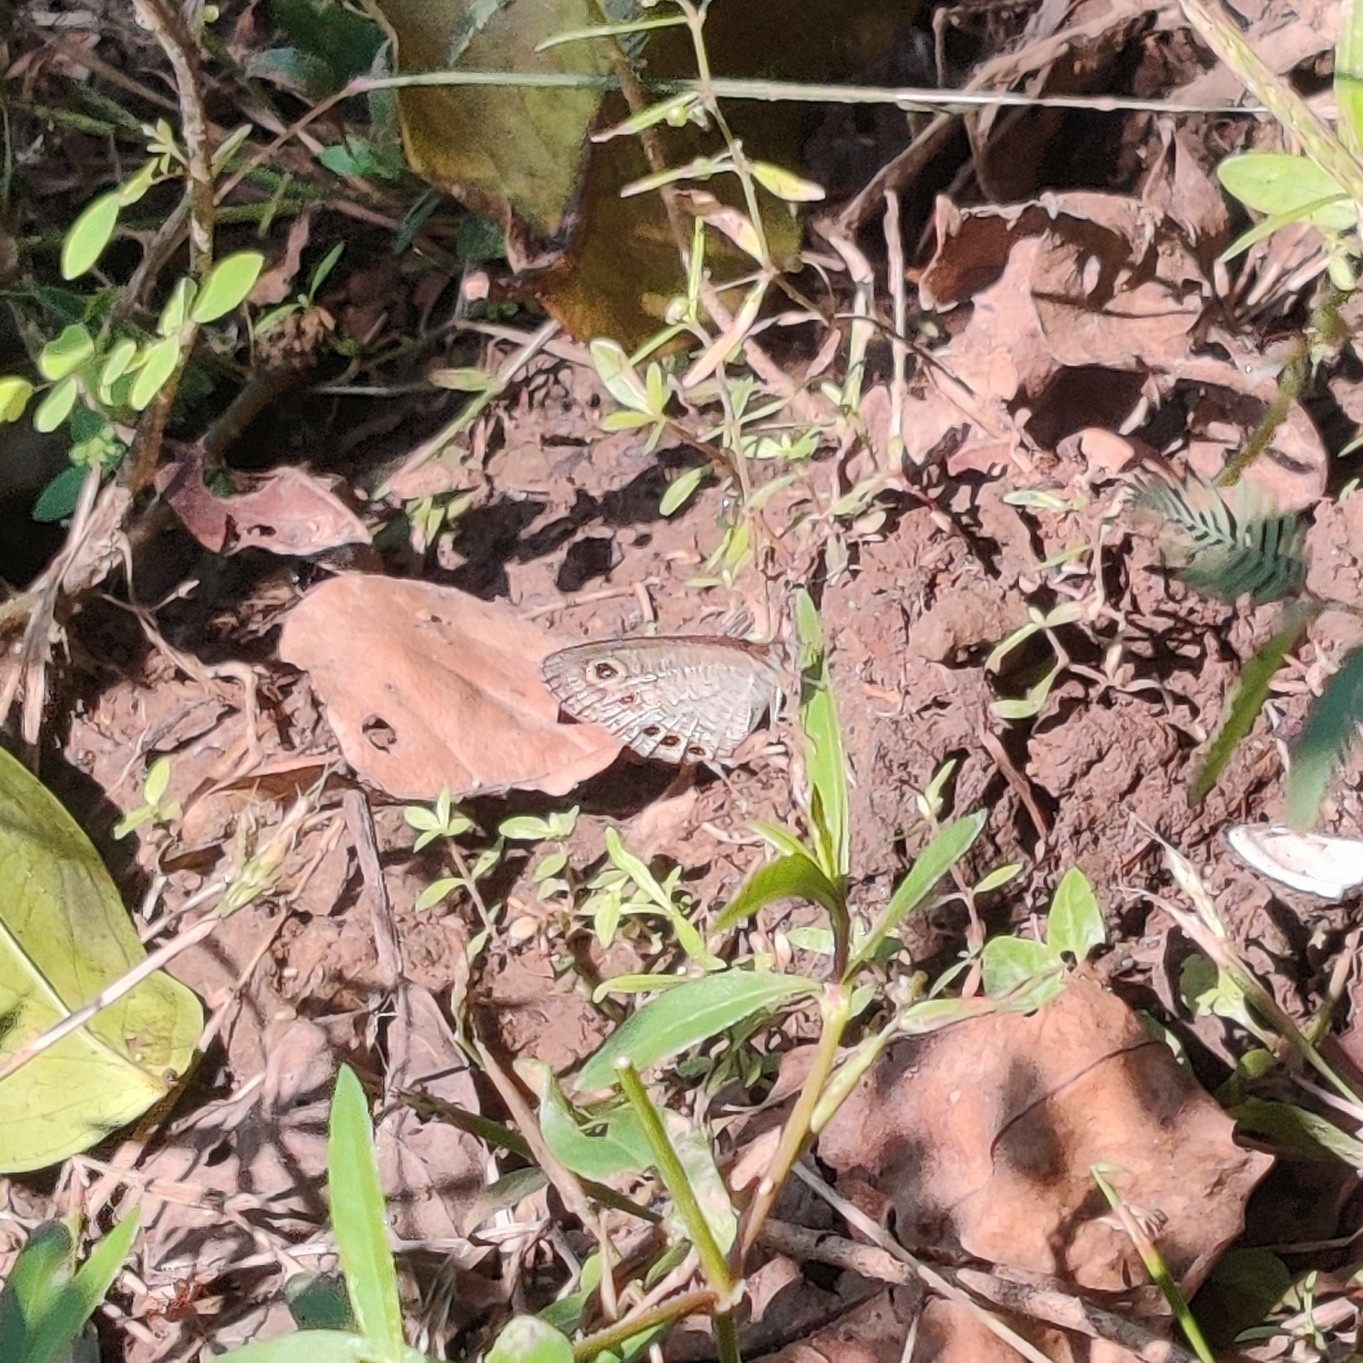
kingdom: Animalia
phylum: Arthropoda
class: Insecta
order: Lepidoptera
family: Nymphalidae
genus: Ypthima
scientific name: Ypthima huebneri
